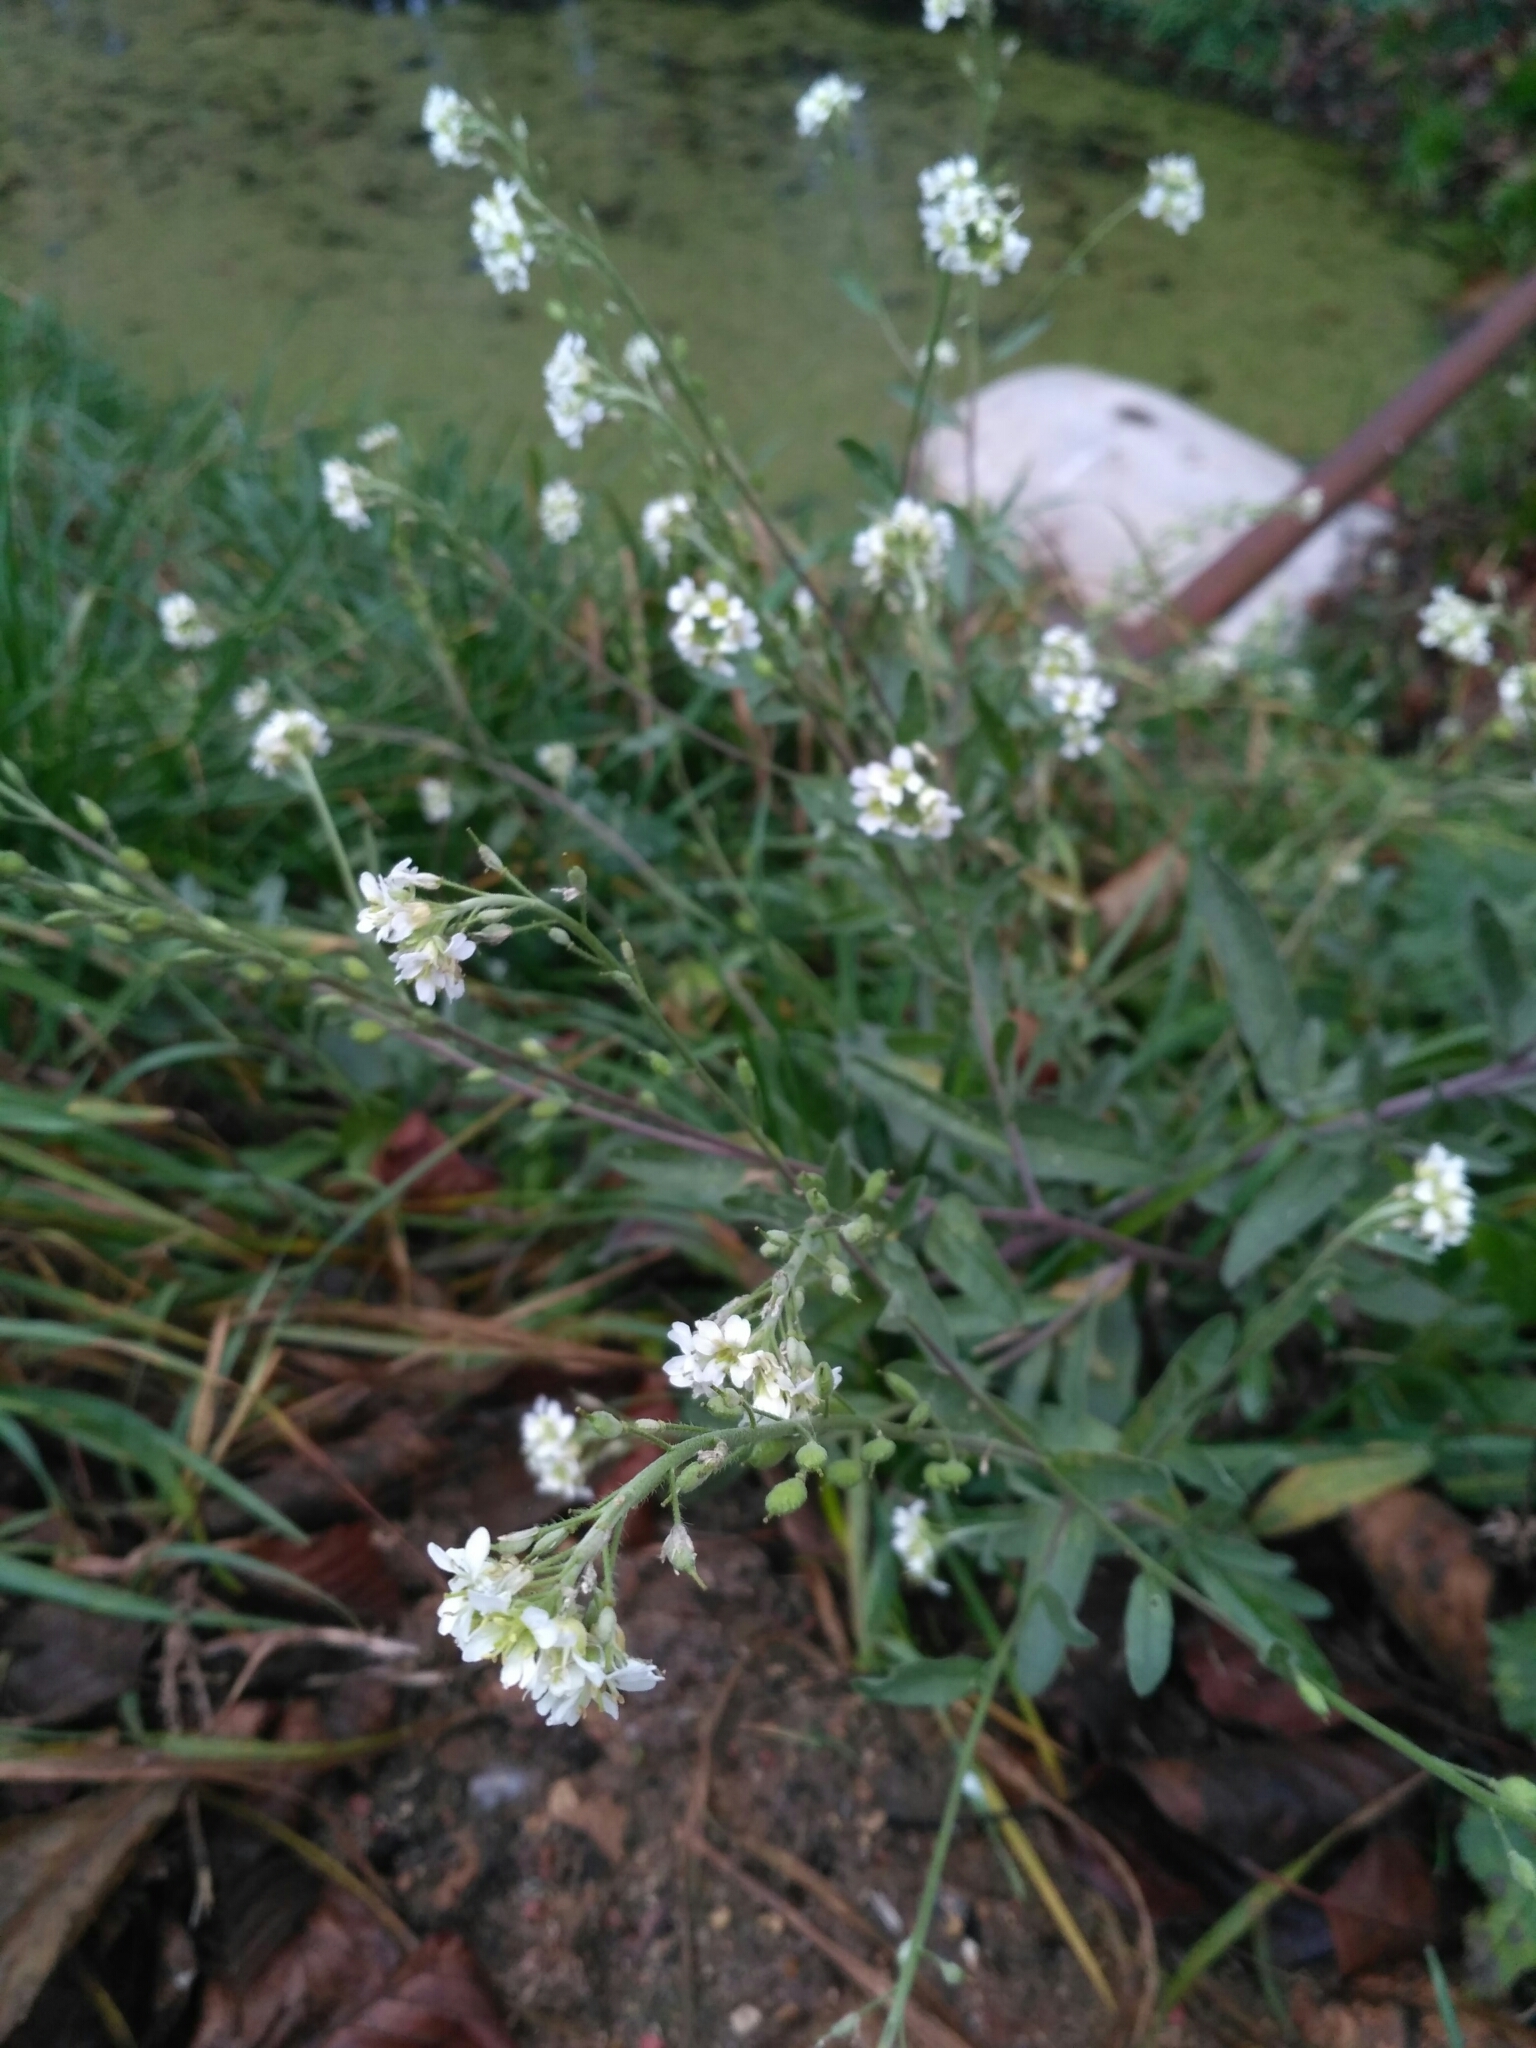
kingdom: Plantae
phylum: Tracheophyta
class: Magnoliopsida
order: Brassicales
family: Brassicaceae
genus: Berteroa
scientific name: Berteroa incana
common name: Hoary alison
